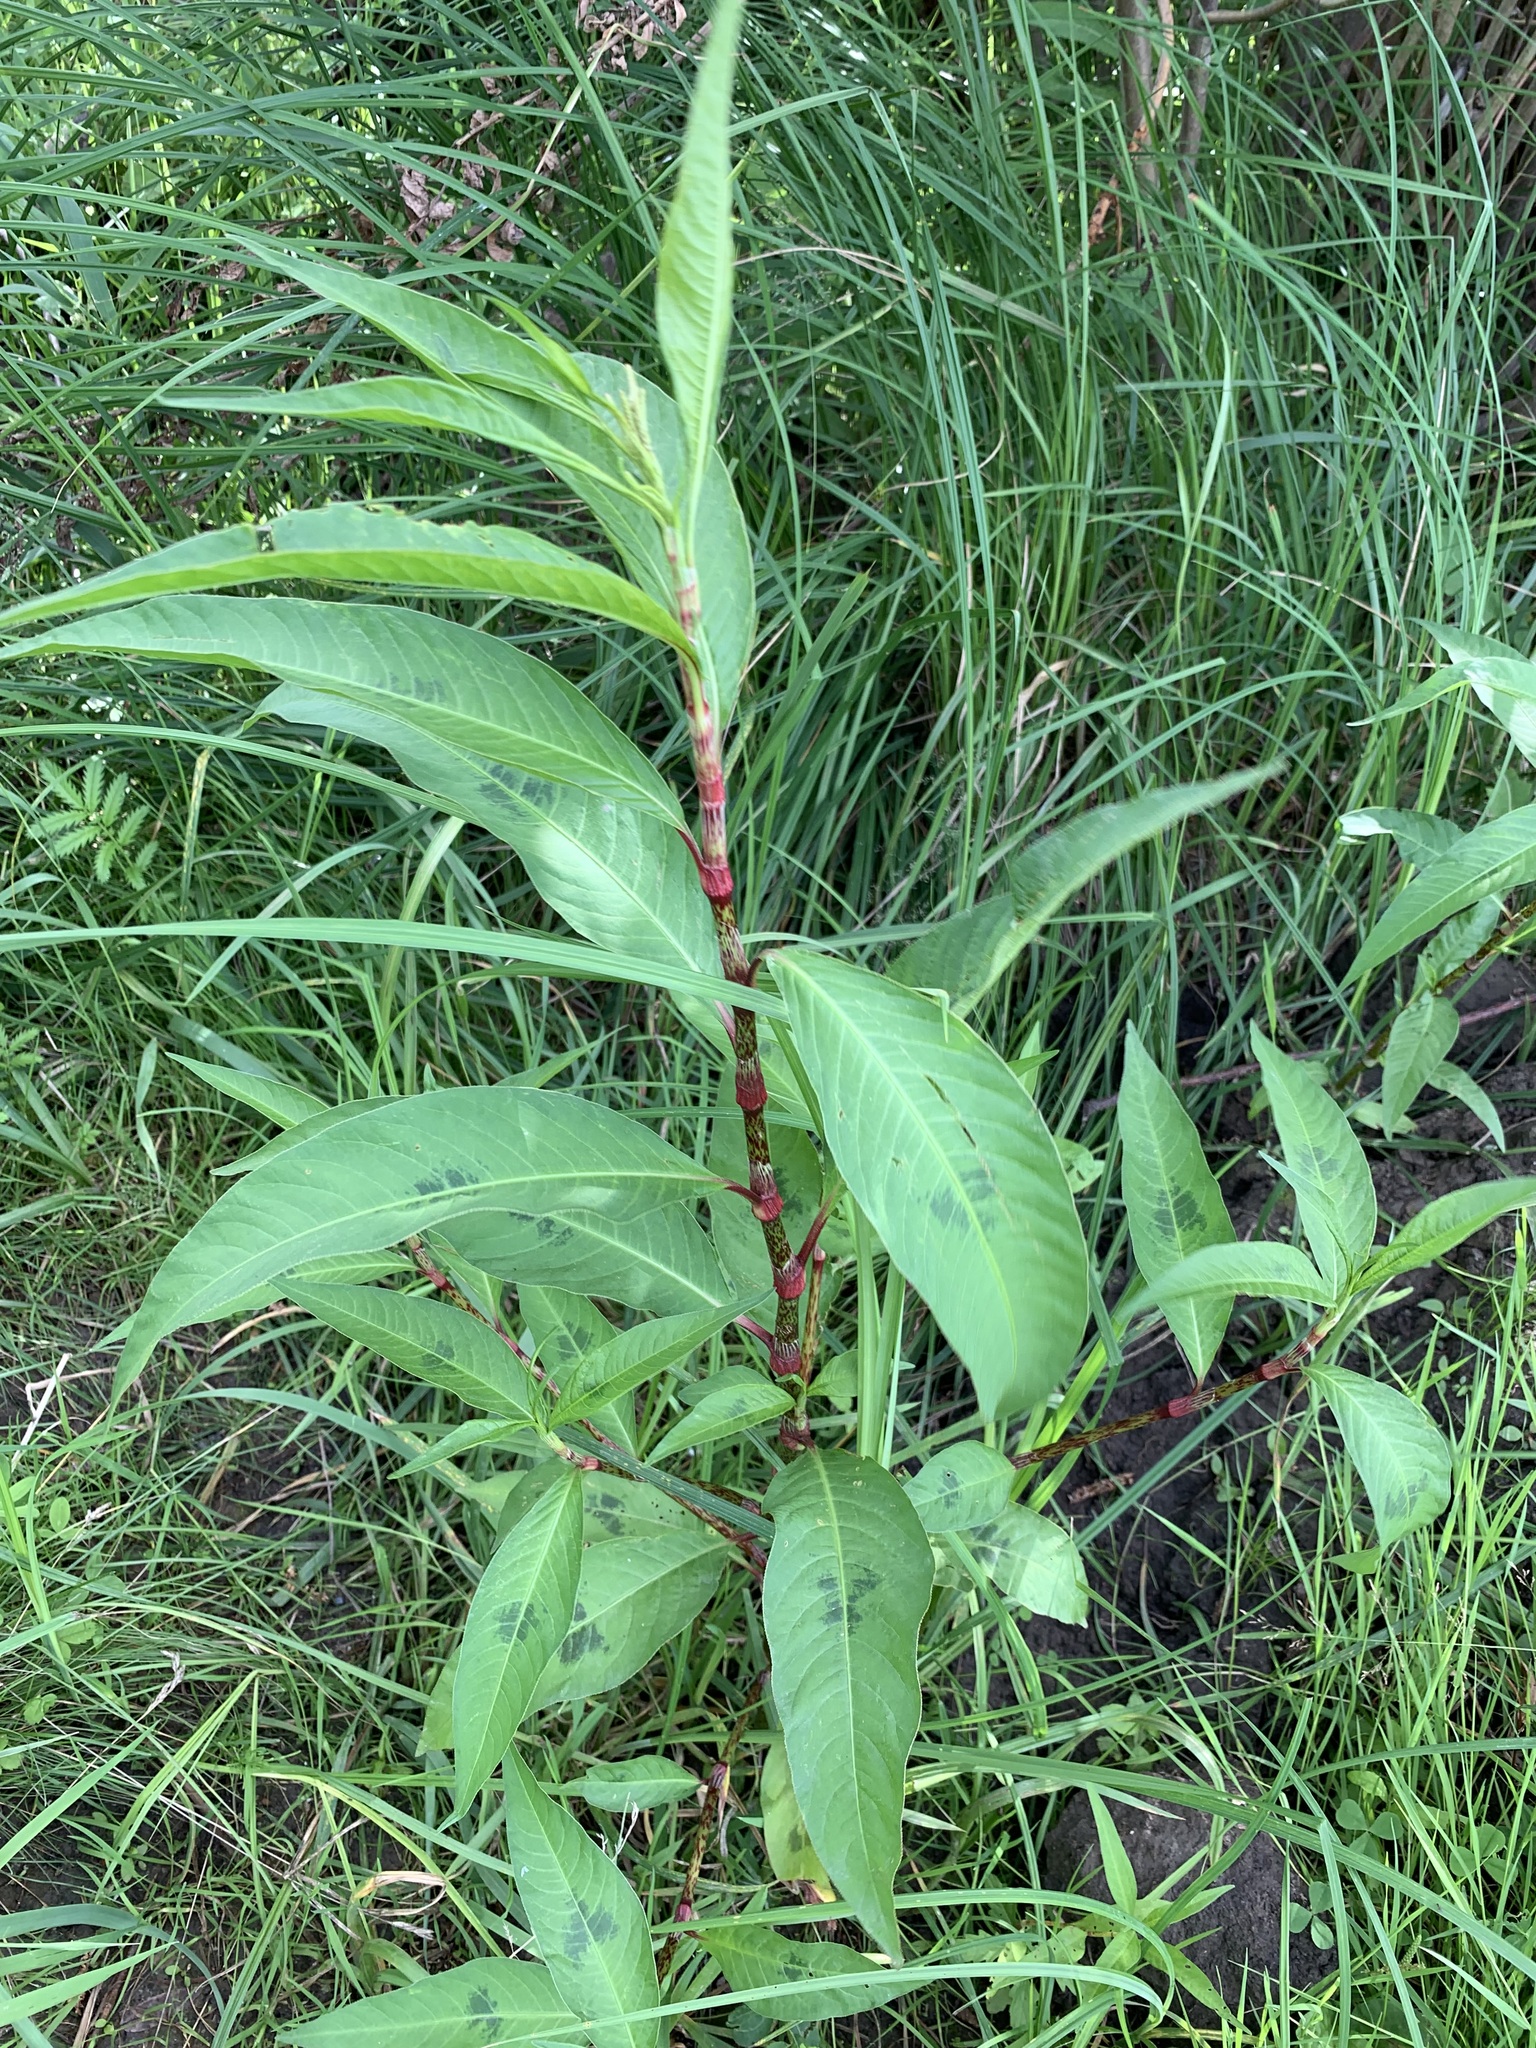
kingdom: Plantae
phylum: Tracheophyta
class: Magnoliopsida
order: Caryophyllales
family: Polygonaceae
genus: Persicaria
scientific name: Persicaria lapathifolia
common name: Curlytop knotweed
